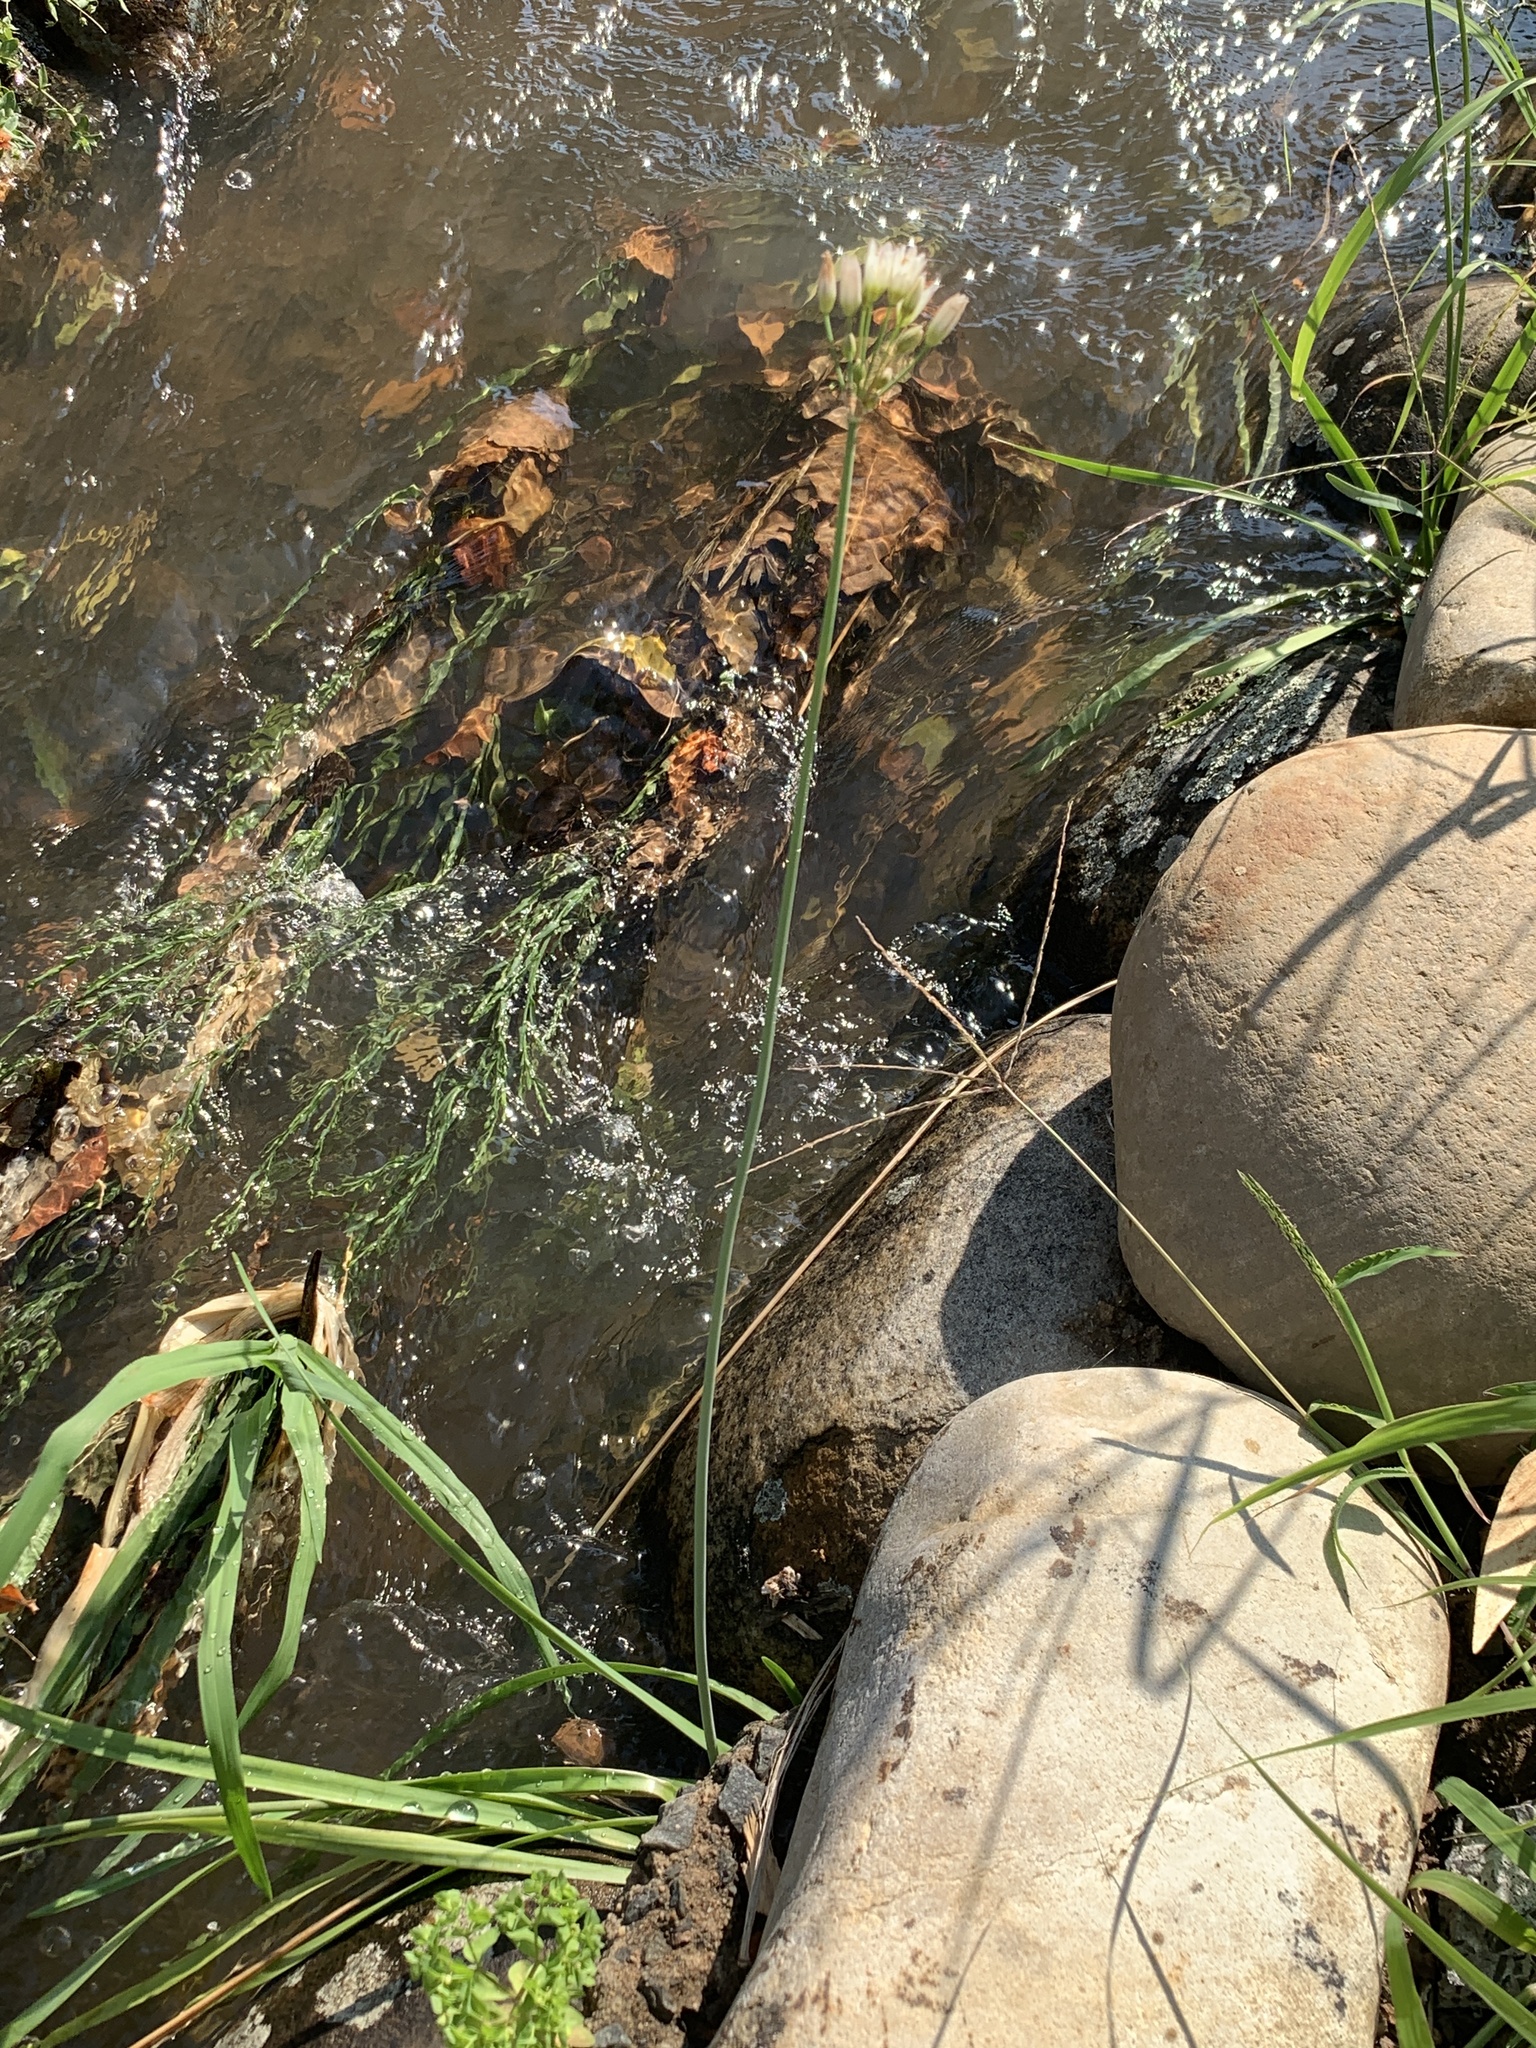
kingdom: Plantae
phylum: Tracheophyta
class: Liliopsida
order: Asparagales
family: Amaryllidaceae
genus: Nothoscordum
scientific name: Nothoscordum gracile
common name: Slender false garlic
